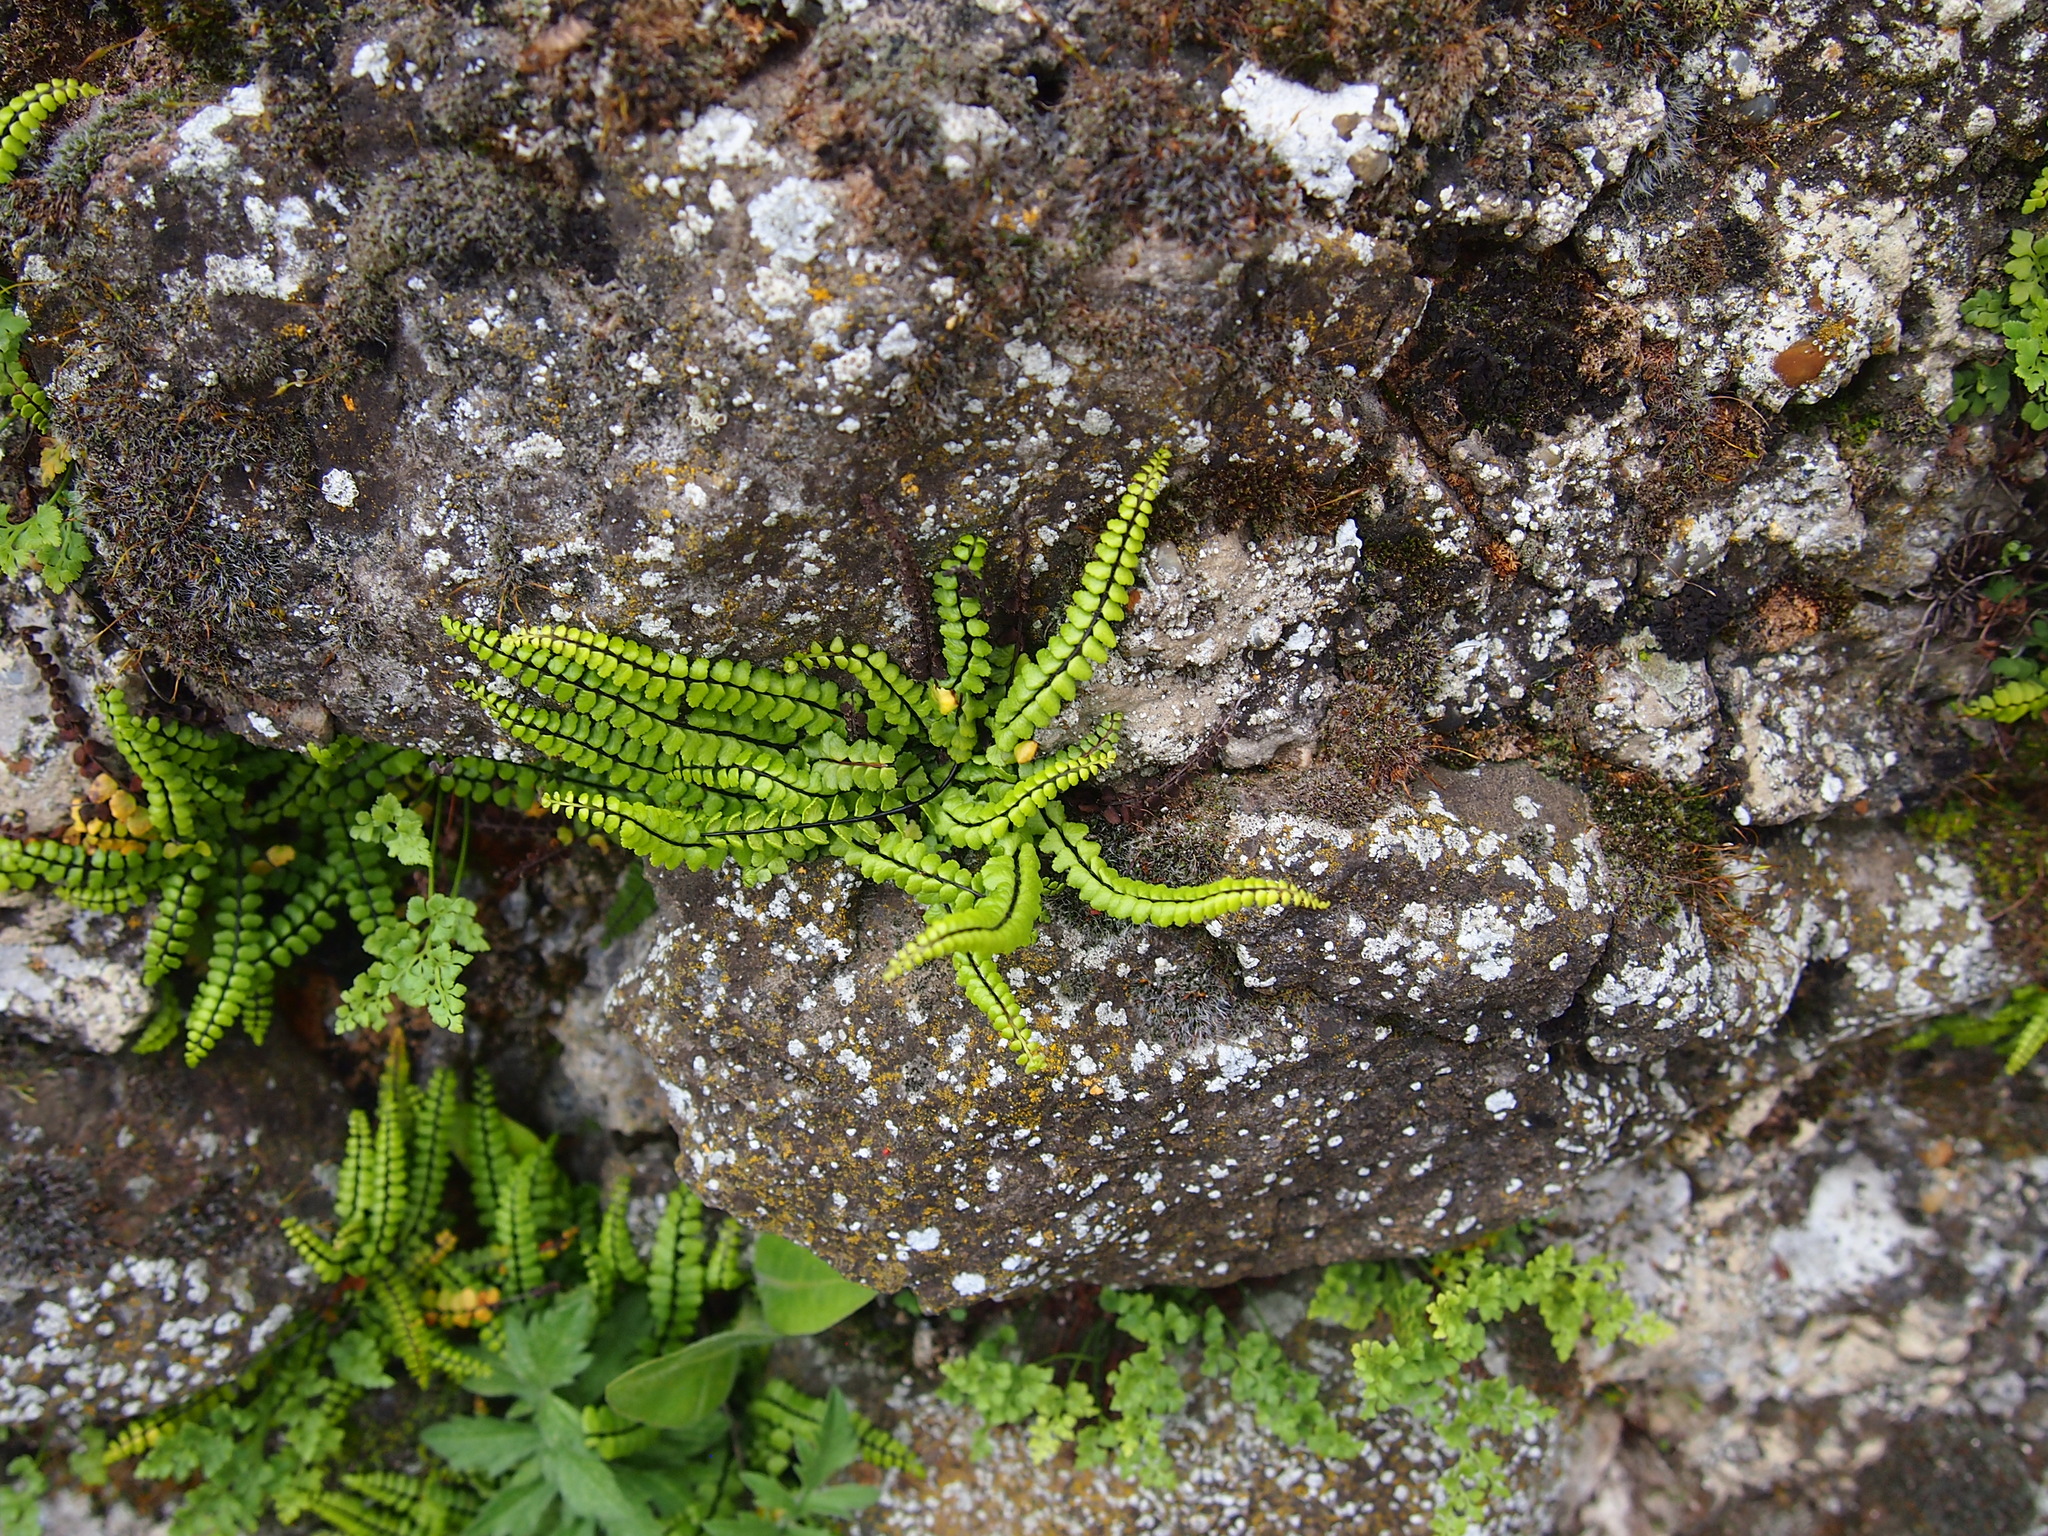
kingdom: Plantae
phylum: Tracheophyta
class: Polypodiopsida
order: Polypodiales
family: Aspleniaceae
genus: Asplenium
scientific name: Asplenium trichomanes
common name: Maidenhair spleenwort
